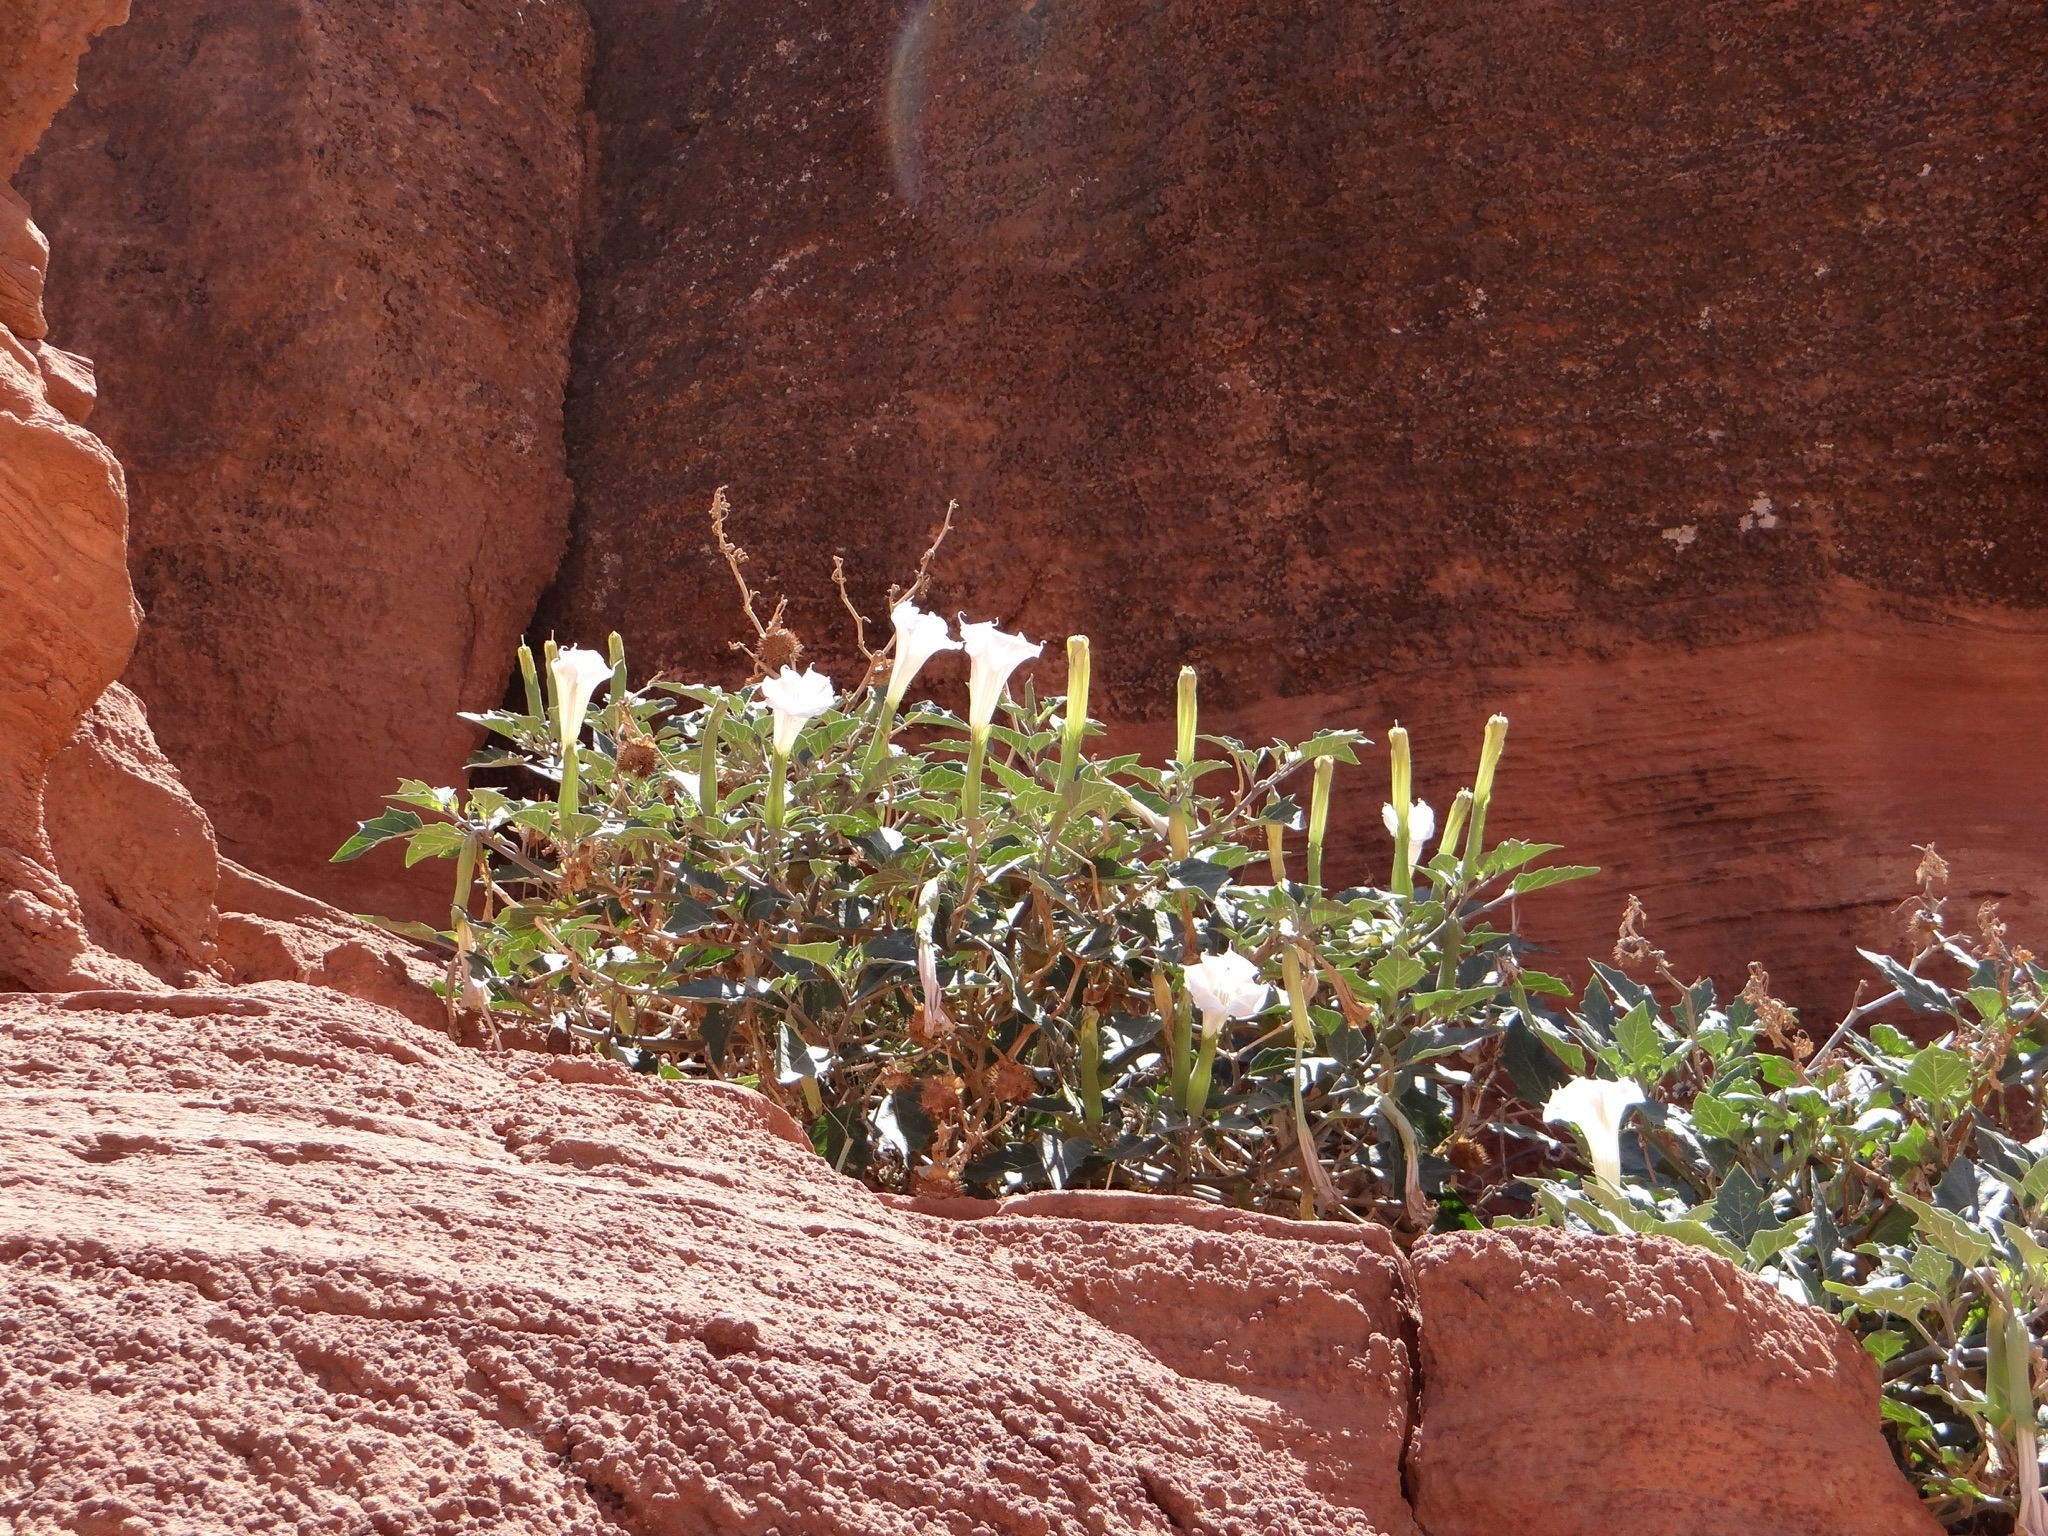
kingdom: Plantae
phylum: Tracheophyta
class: Magnoliopsida
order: Solanales
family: Solanaceae
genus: Datura
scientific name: Datura wrightii
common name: Sacred thorn-apple
